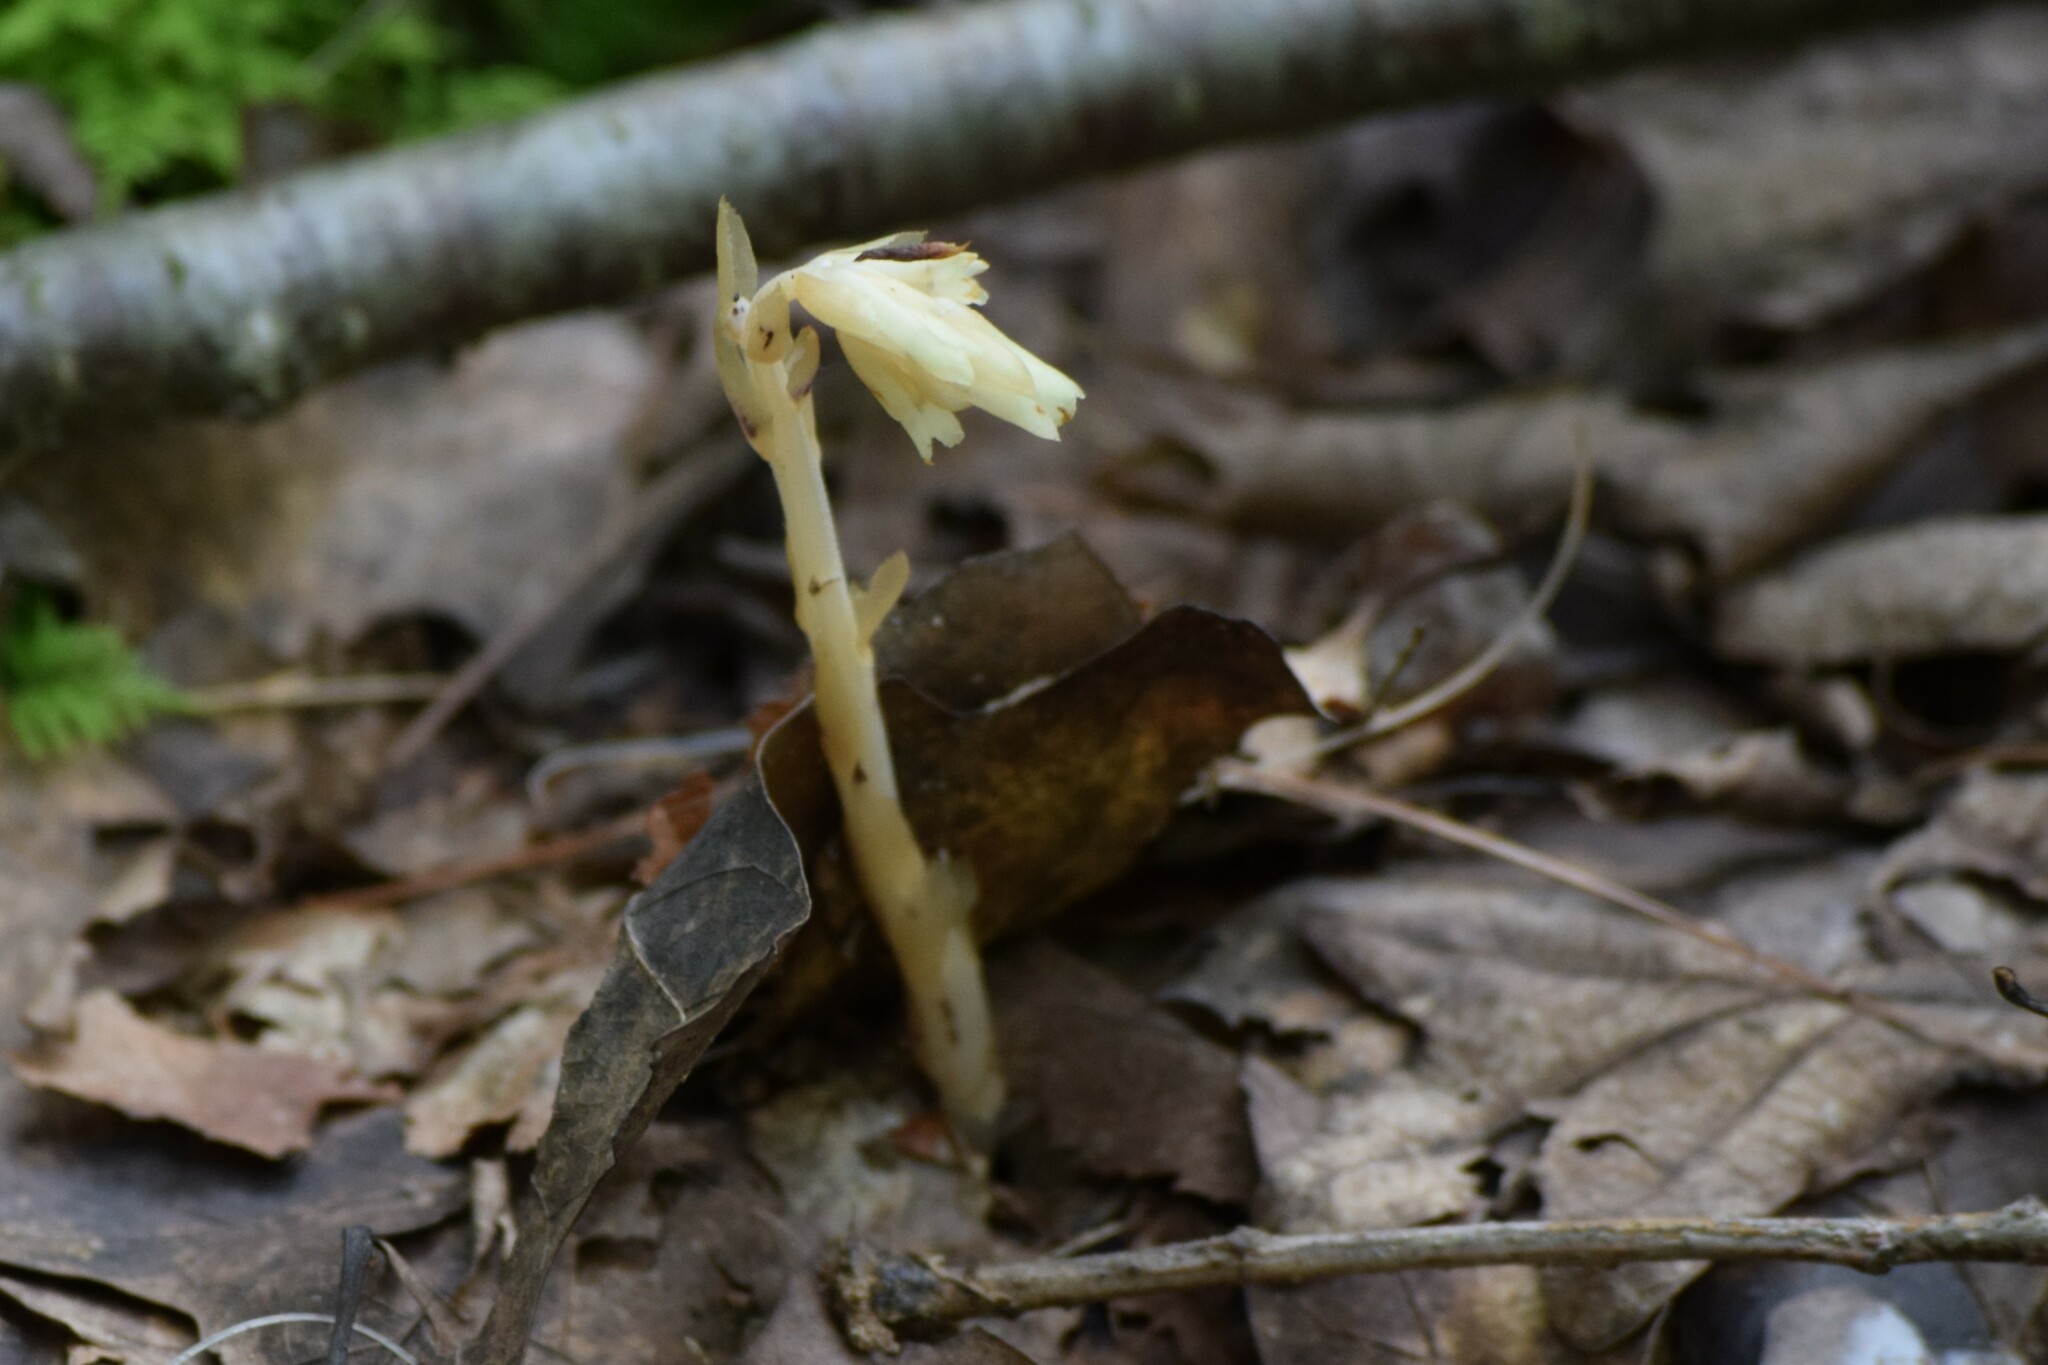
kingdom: Plantae
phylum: Tracheophyta
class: Magnoliopsida
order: Ericales
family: Ericaceae
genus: Hypopitys
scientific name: Hypopitys monotropa
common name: Yellow bird's-nest
